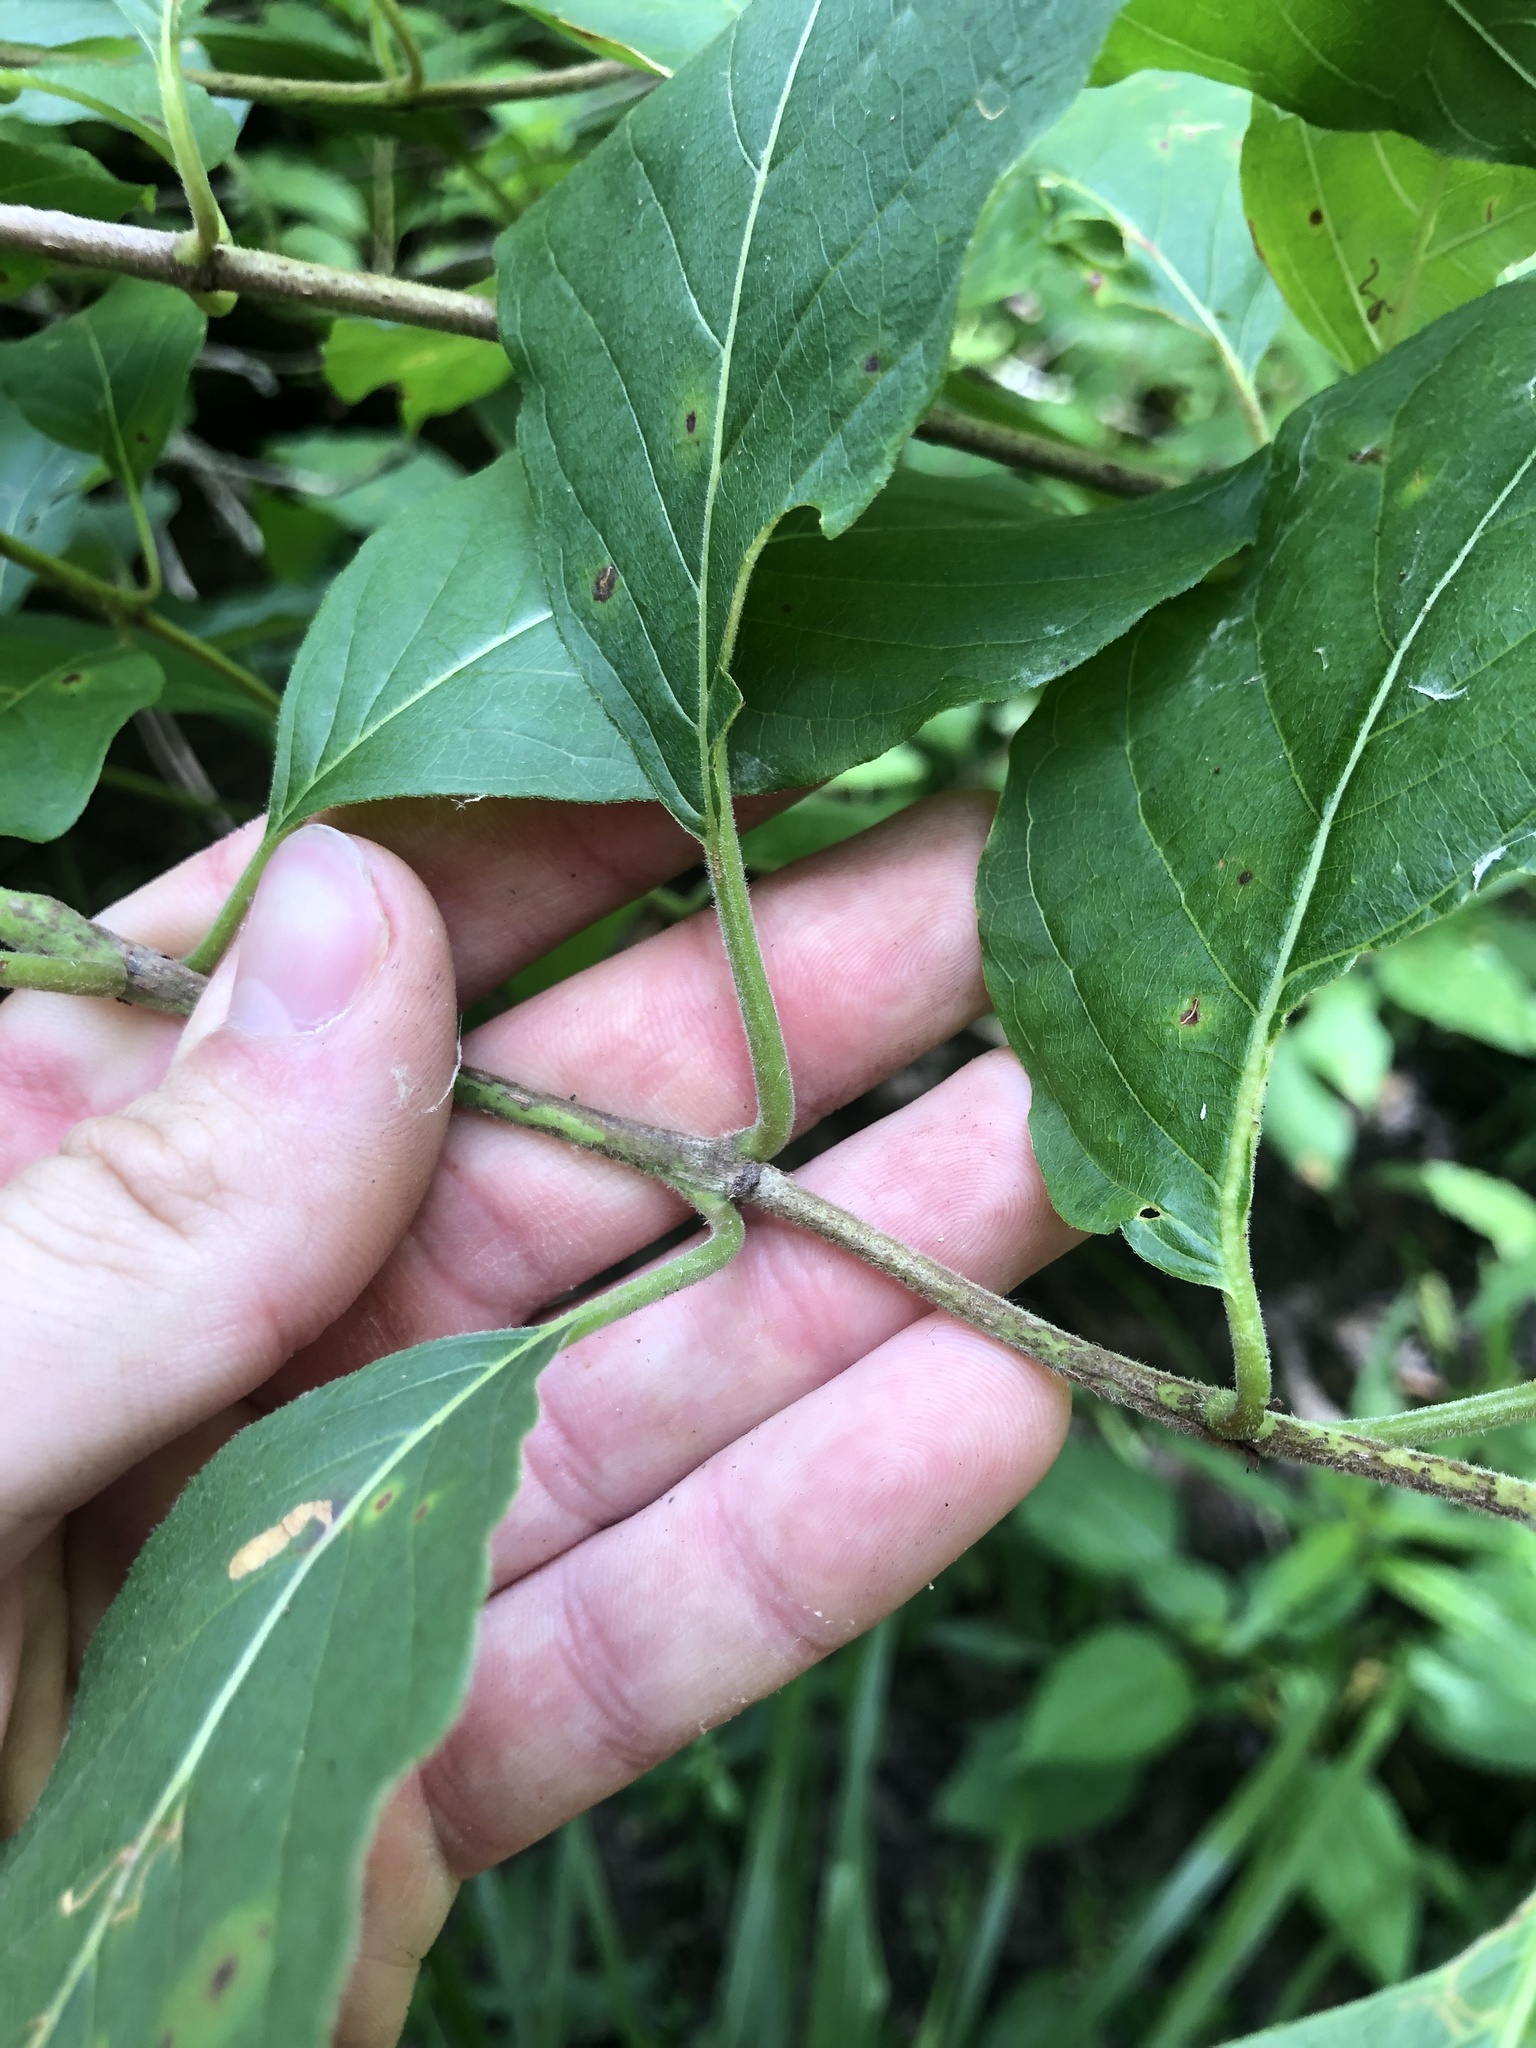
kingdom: Plantae
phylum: Tracheophyta
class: Magnoliopsida
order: Gentianales
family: Rubiaceae
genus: Cephalanthus
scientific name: Cephalanthus occidentalis
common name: Button-willow
